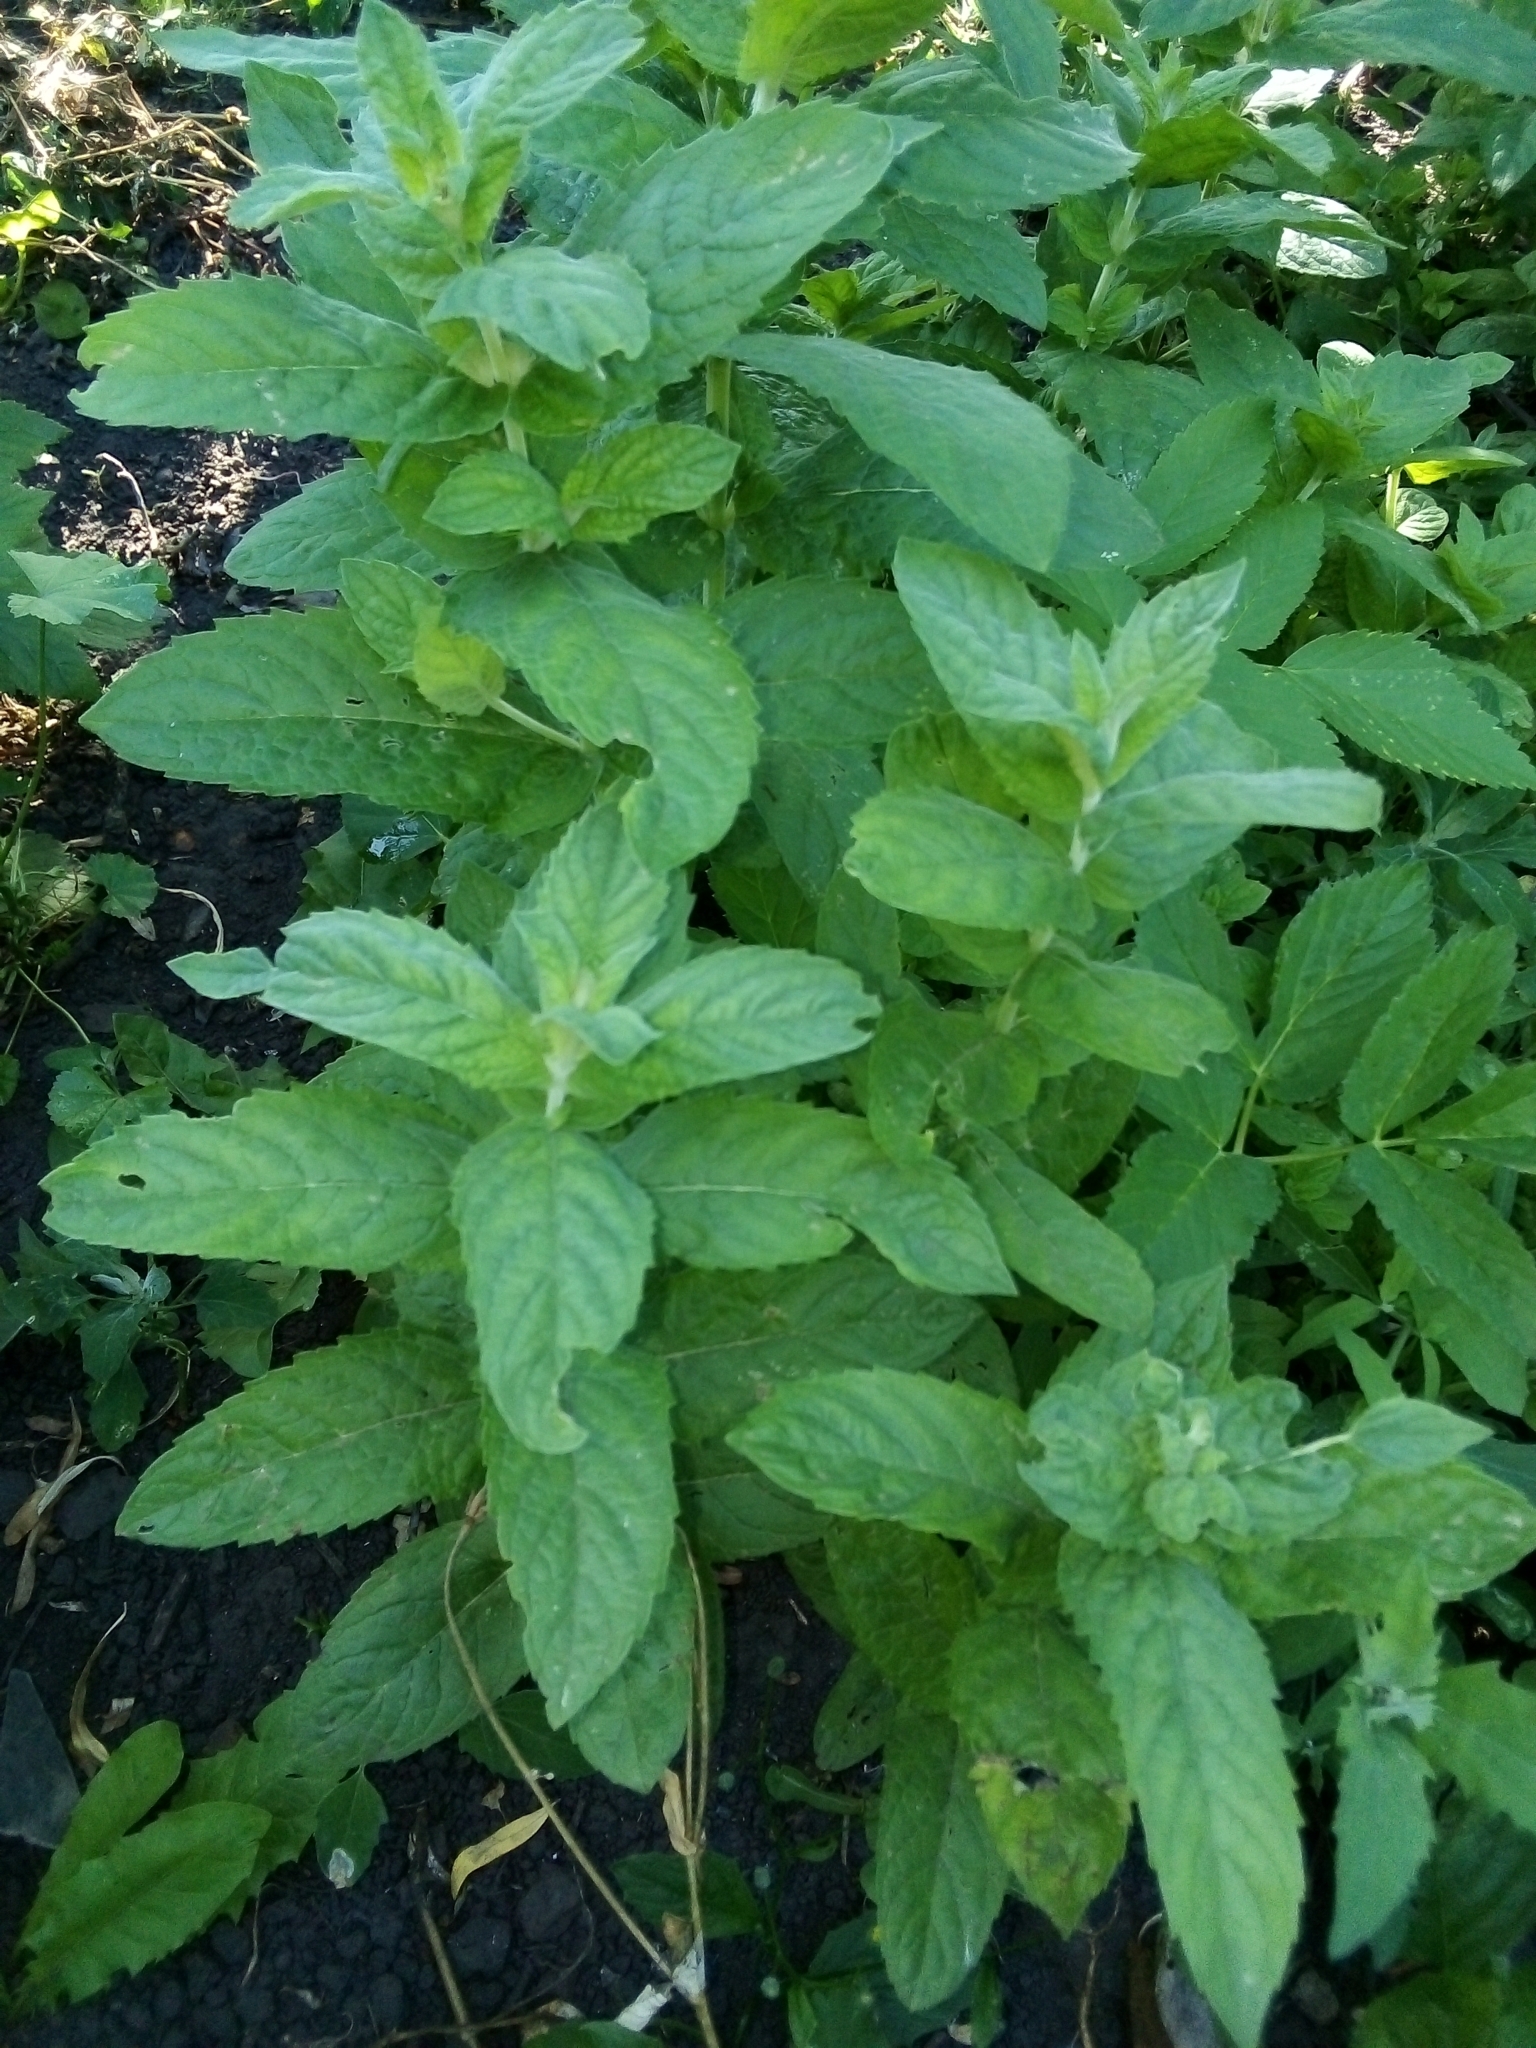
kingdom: Plantae
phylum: Tracheophyta
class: Magnoliopsida
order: Lamiales
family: Lamiaceae
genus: Mentha
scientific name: Mentha longifolia
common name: Horse mint
